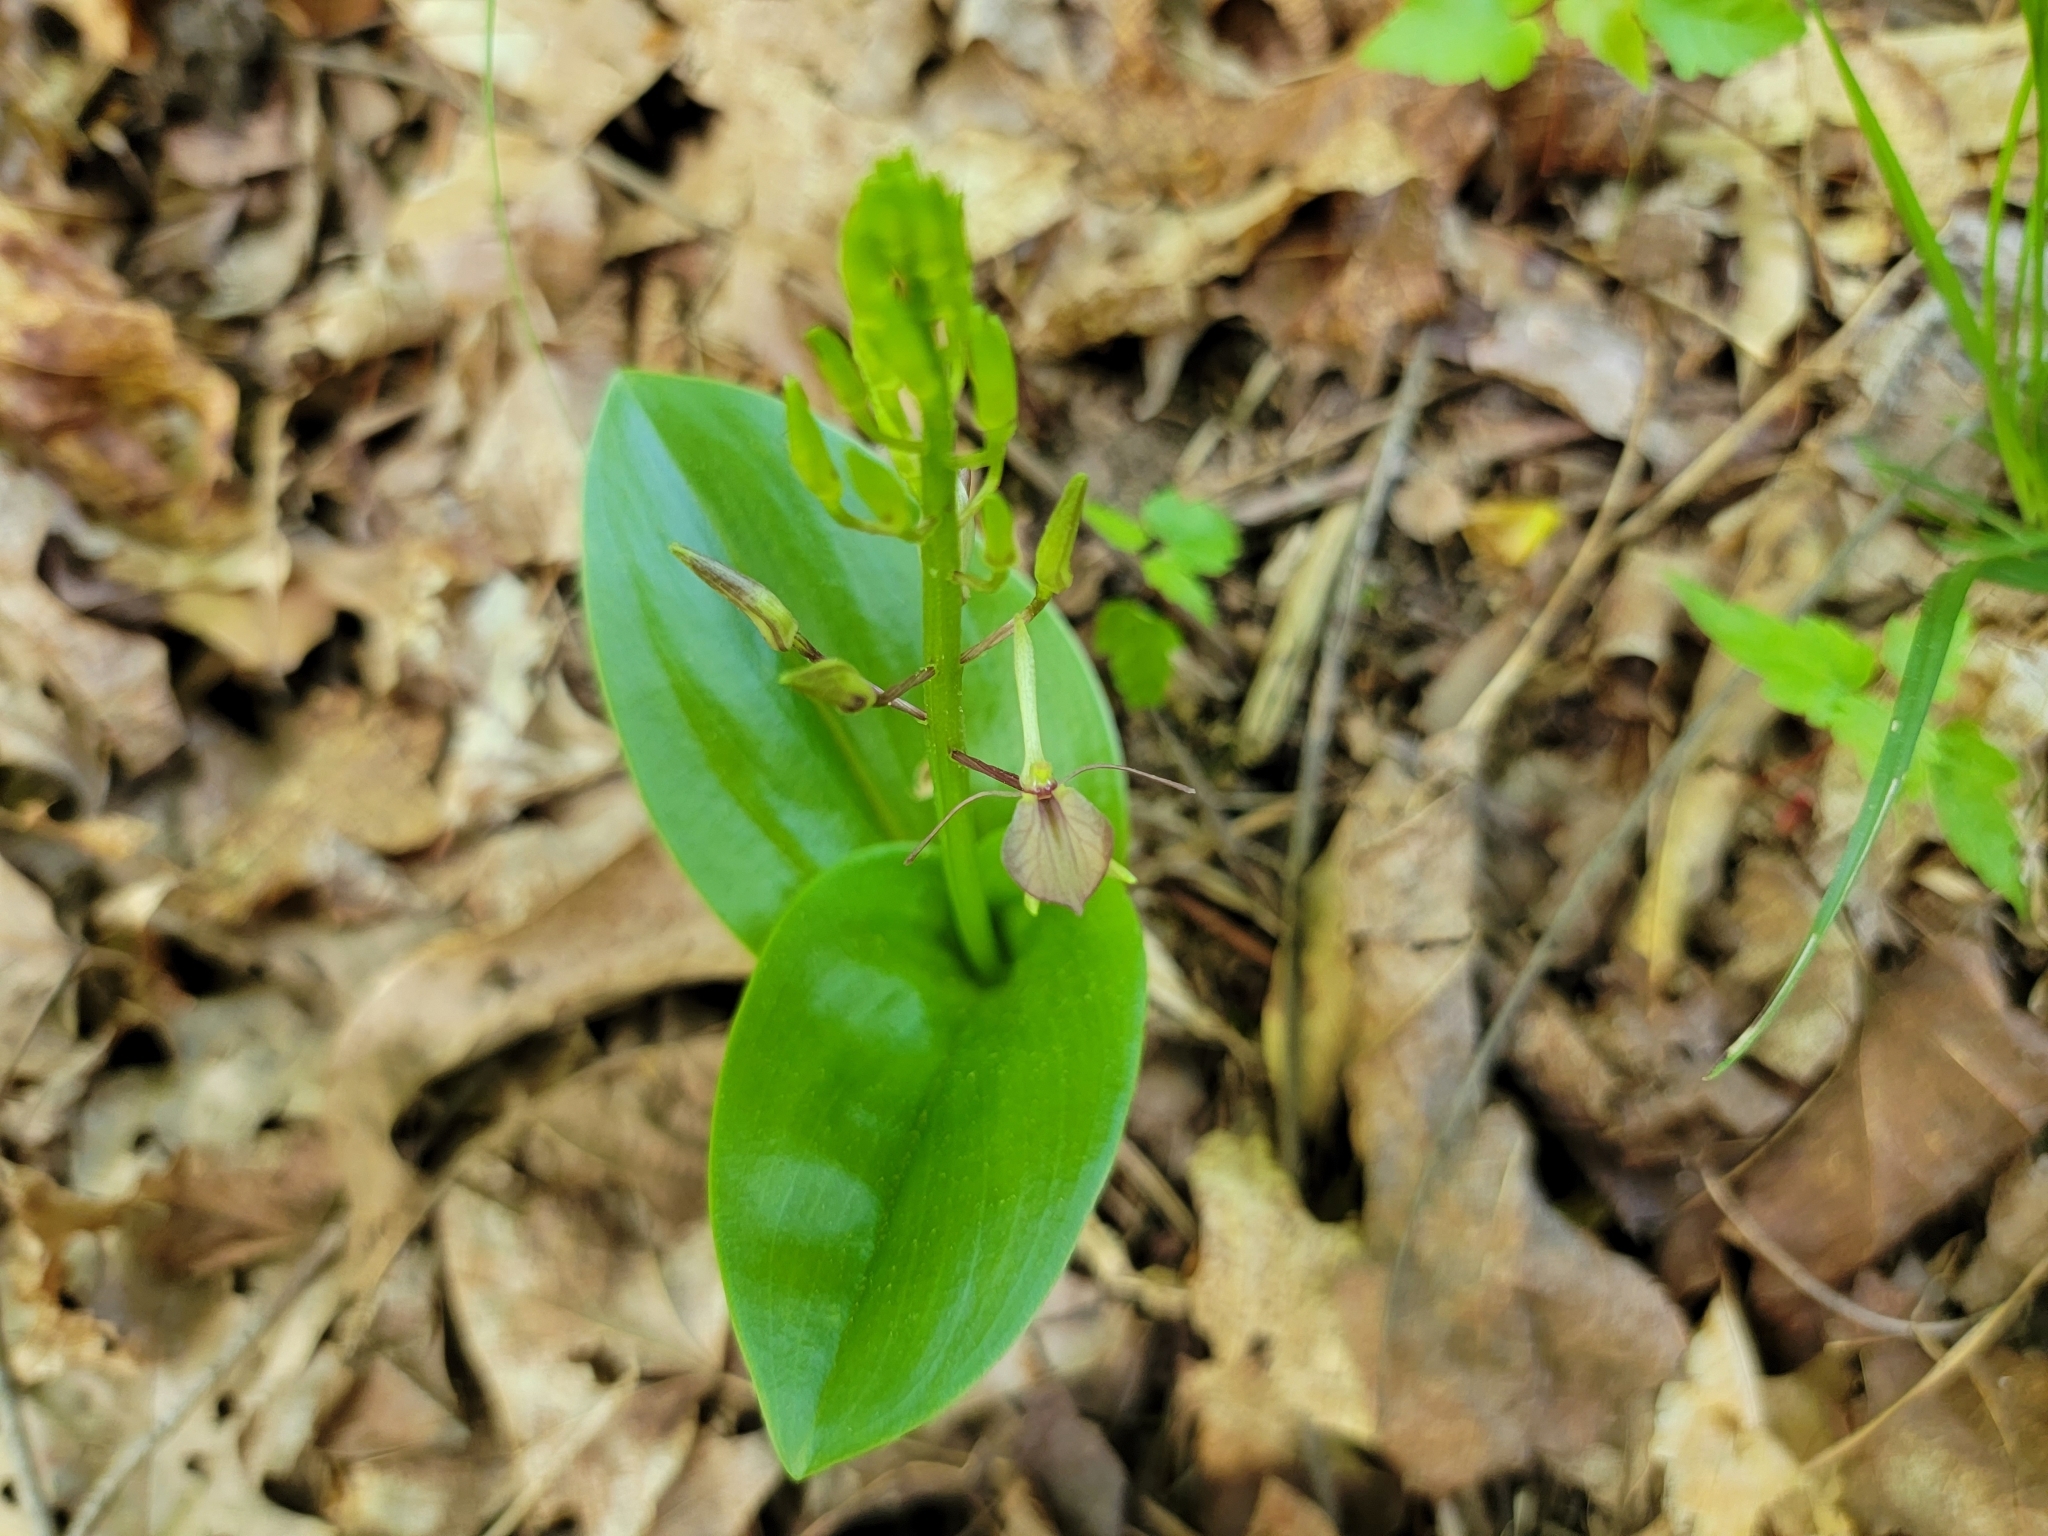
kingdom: Plantae
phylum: Tracheophyta
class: Liliopsida
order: Asparagales
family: Orchidaceae
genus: Liparis
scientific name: Liparis liliifolia
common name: Brown wide-lip orchid
